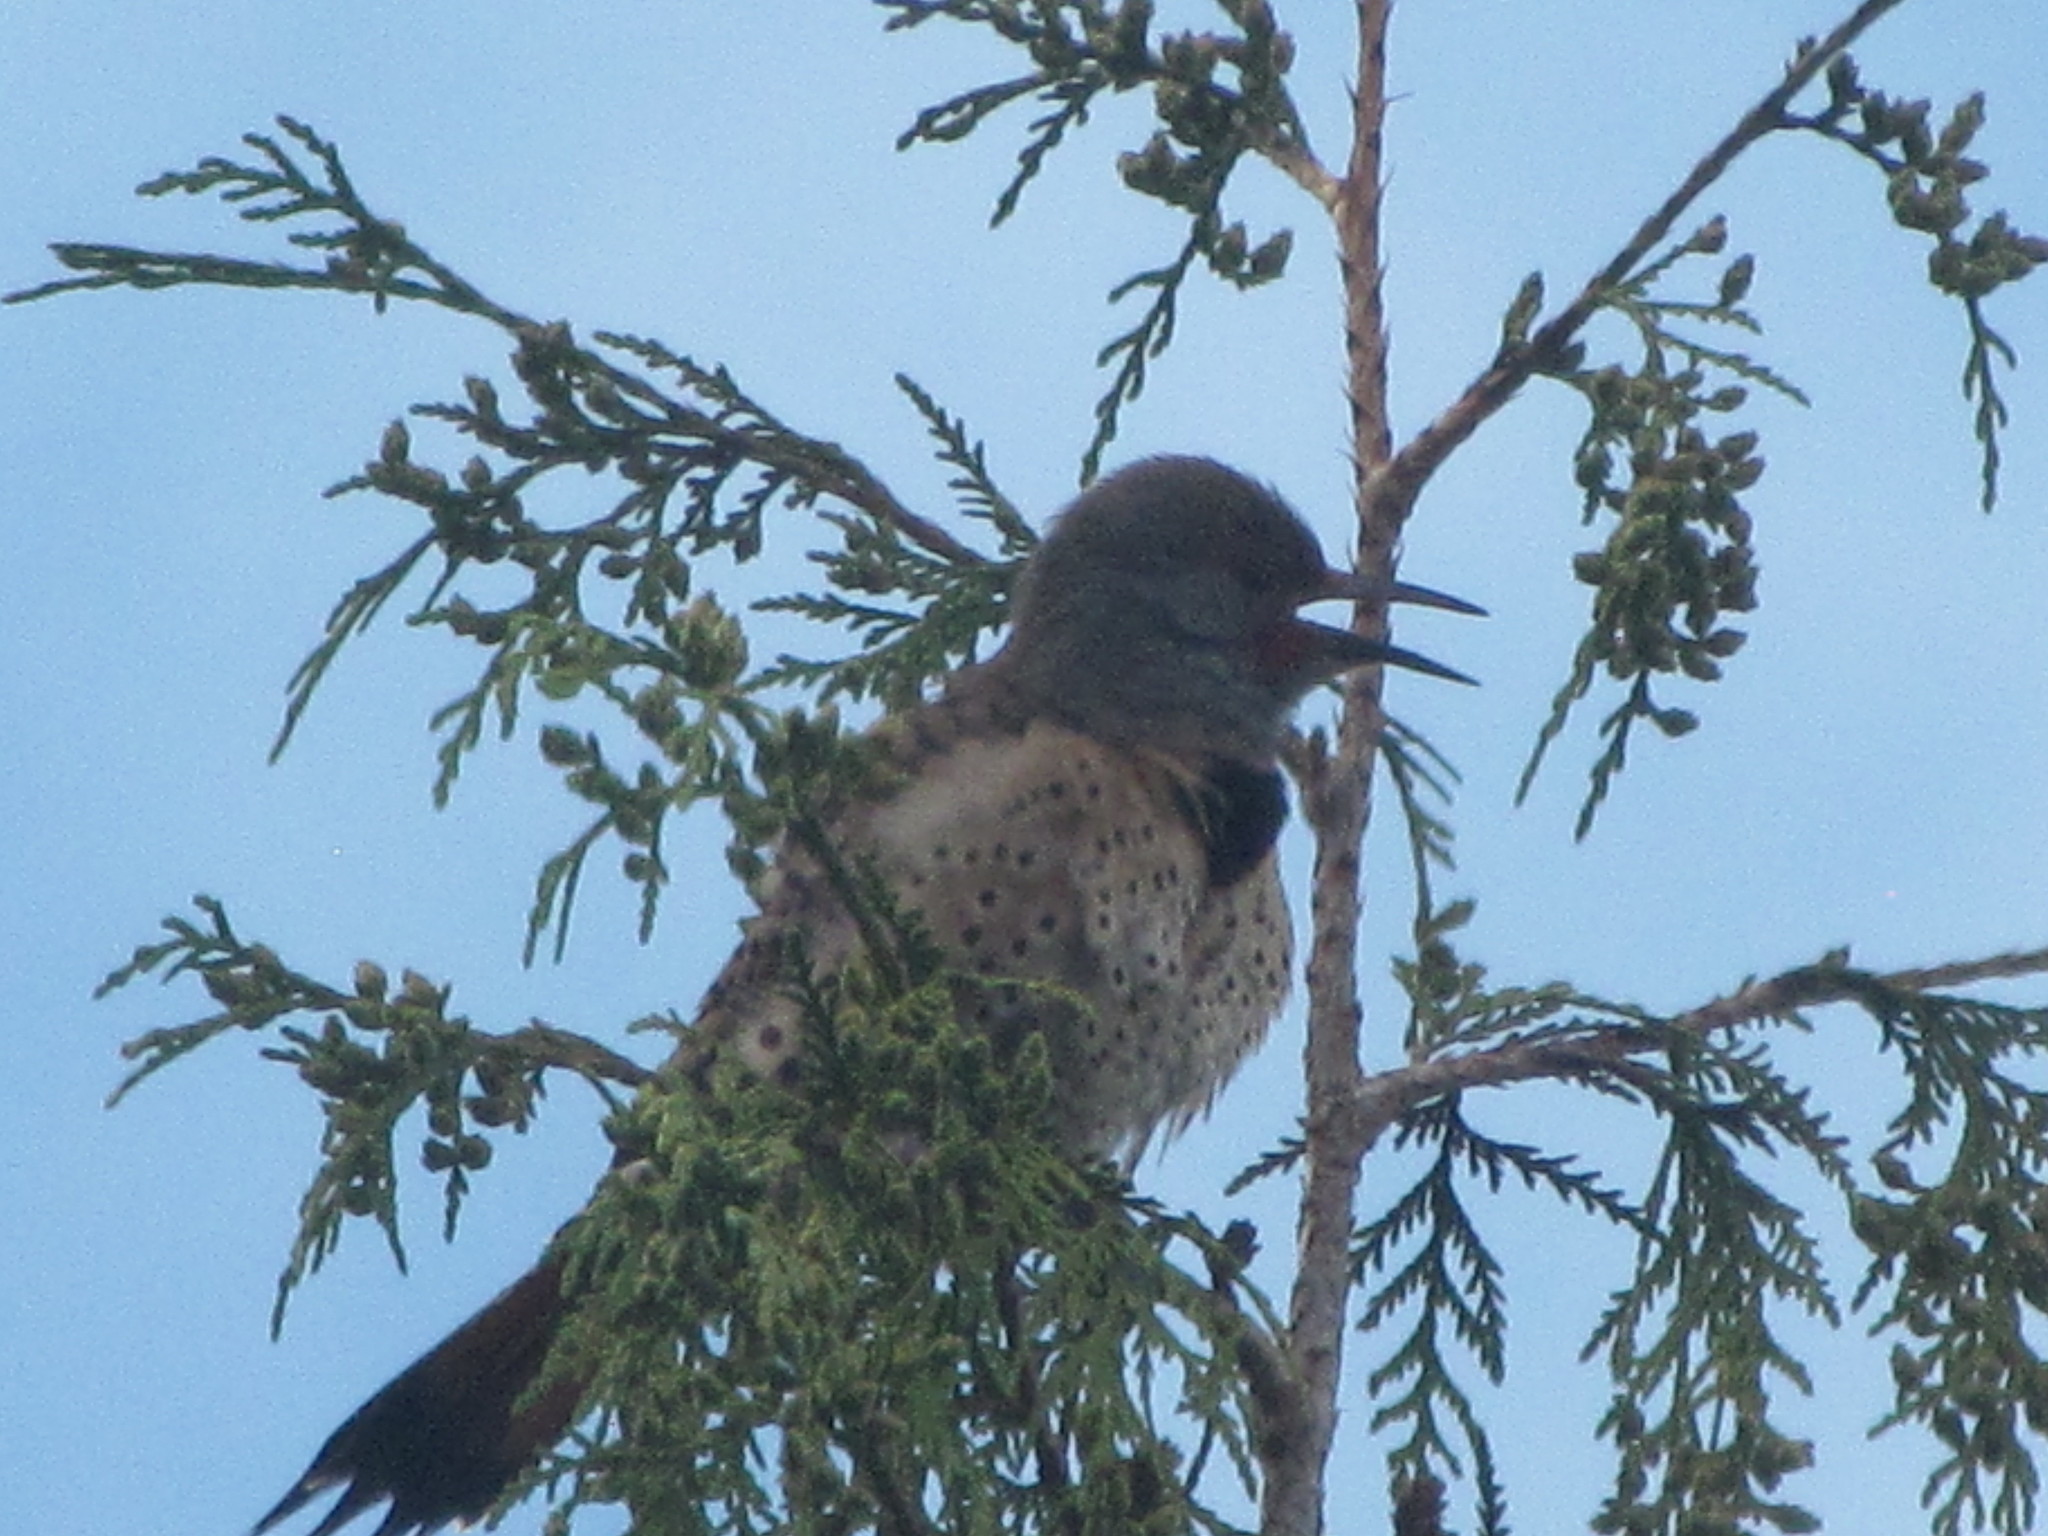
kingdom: Animalia
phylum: Chordata
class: Aves
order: Piciformes
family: Picidae
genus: Colaptes
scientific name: Colaptes auratus
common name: Northern flicker
